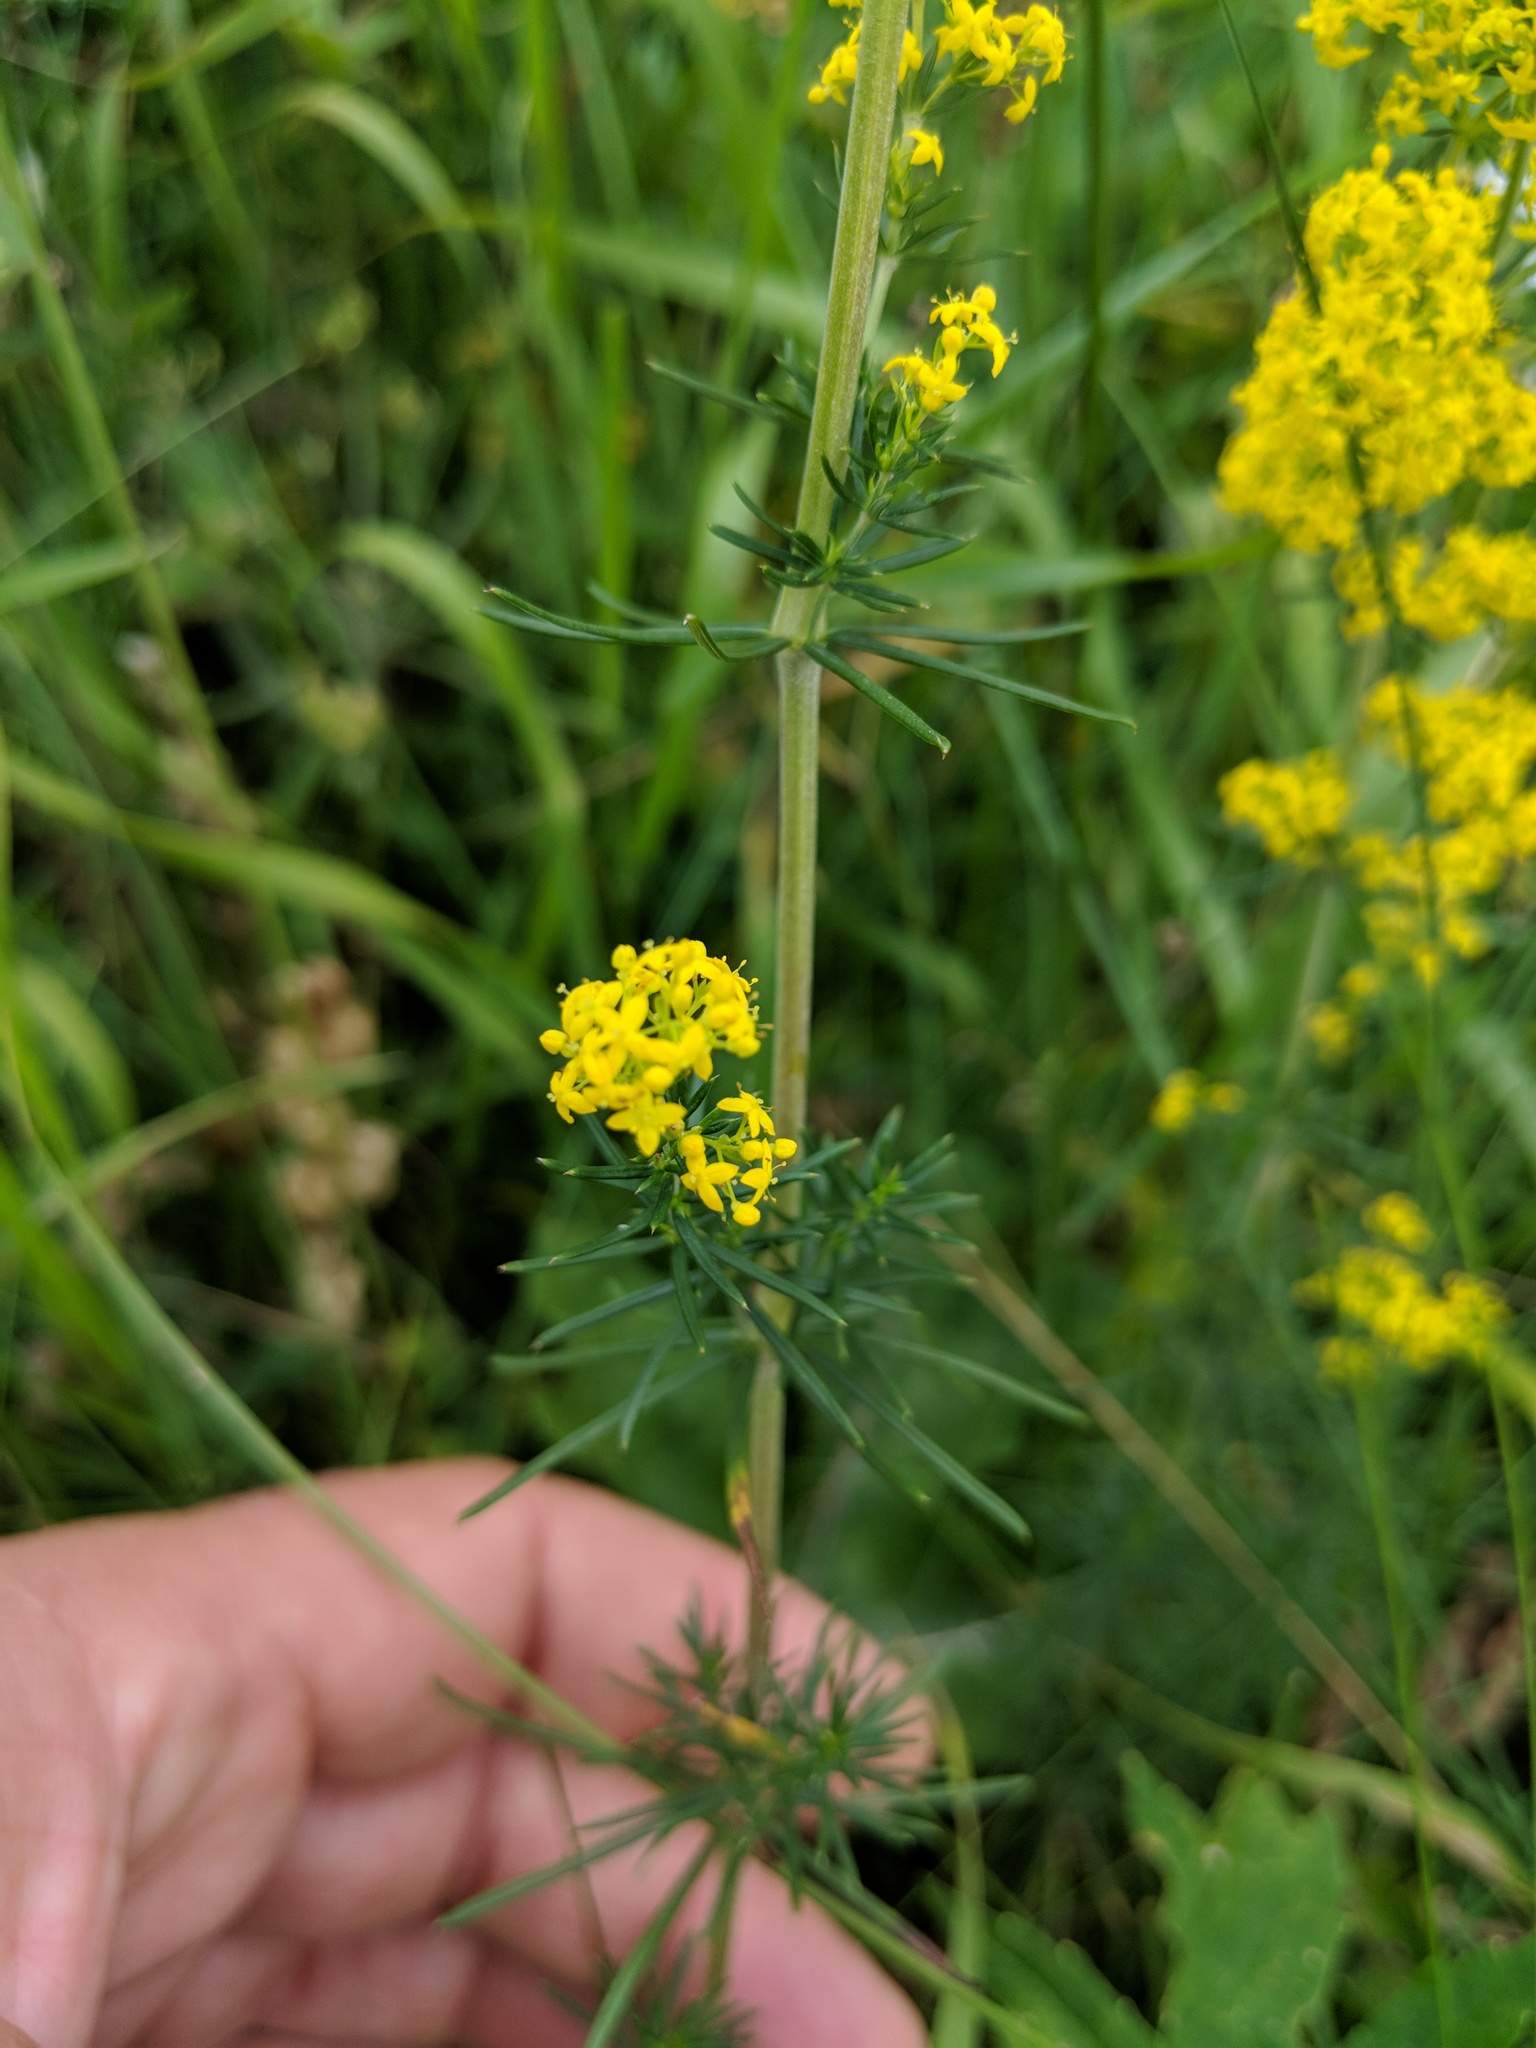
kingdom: Plantae
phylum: Tracheophyta
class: Magnoliopsida
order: Gentianales
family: Rubiaceae
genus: Galium
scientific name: Galium verum
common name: Lady's bedstraw
